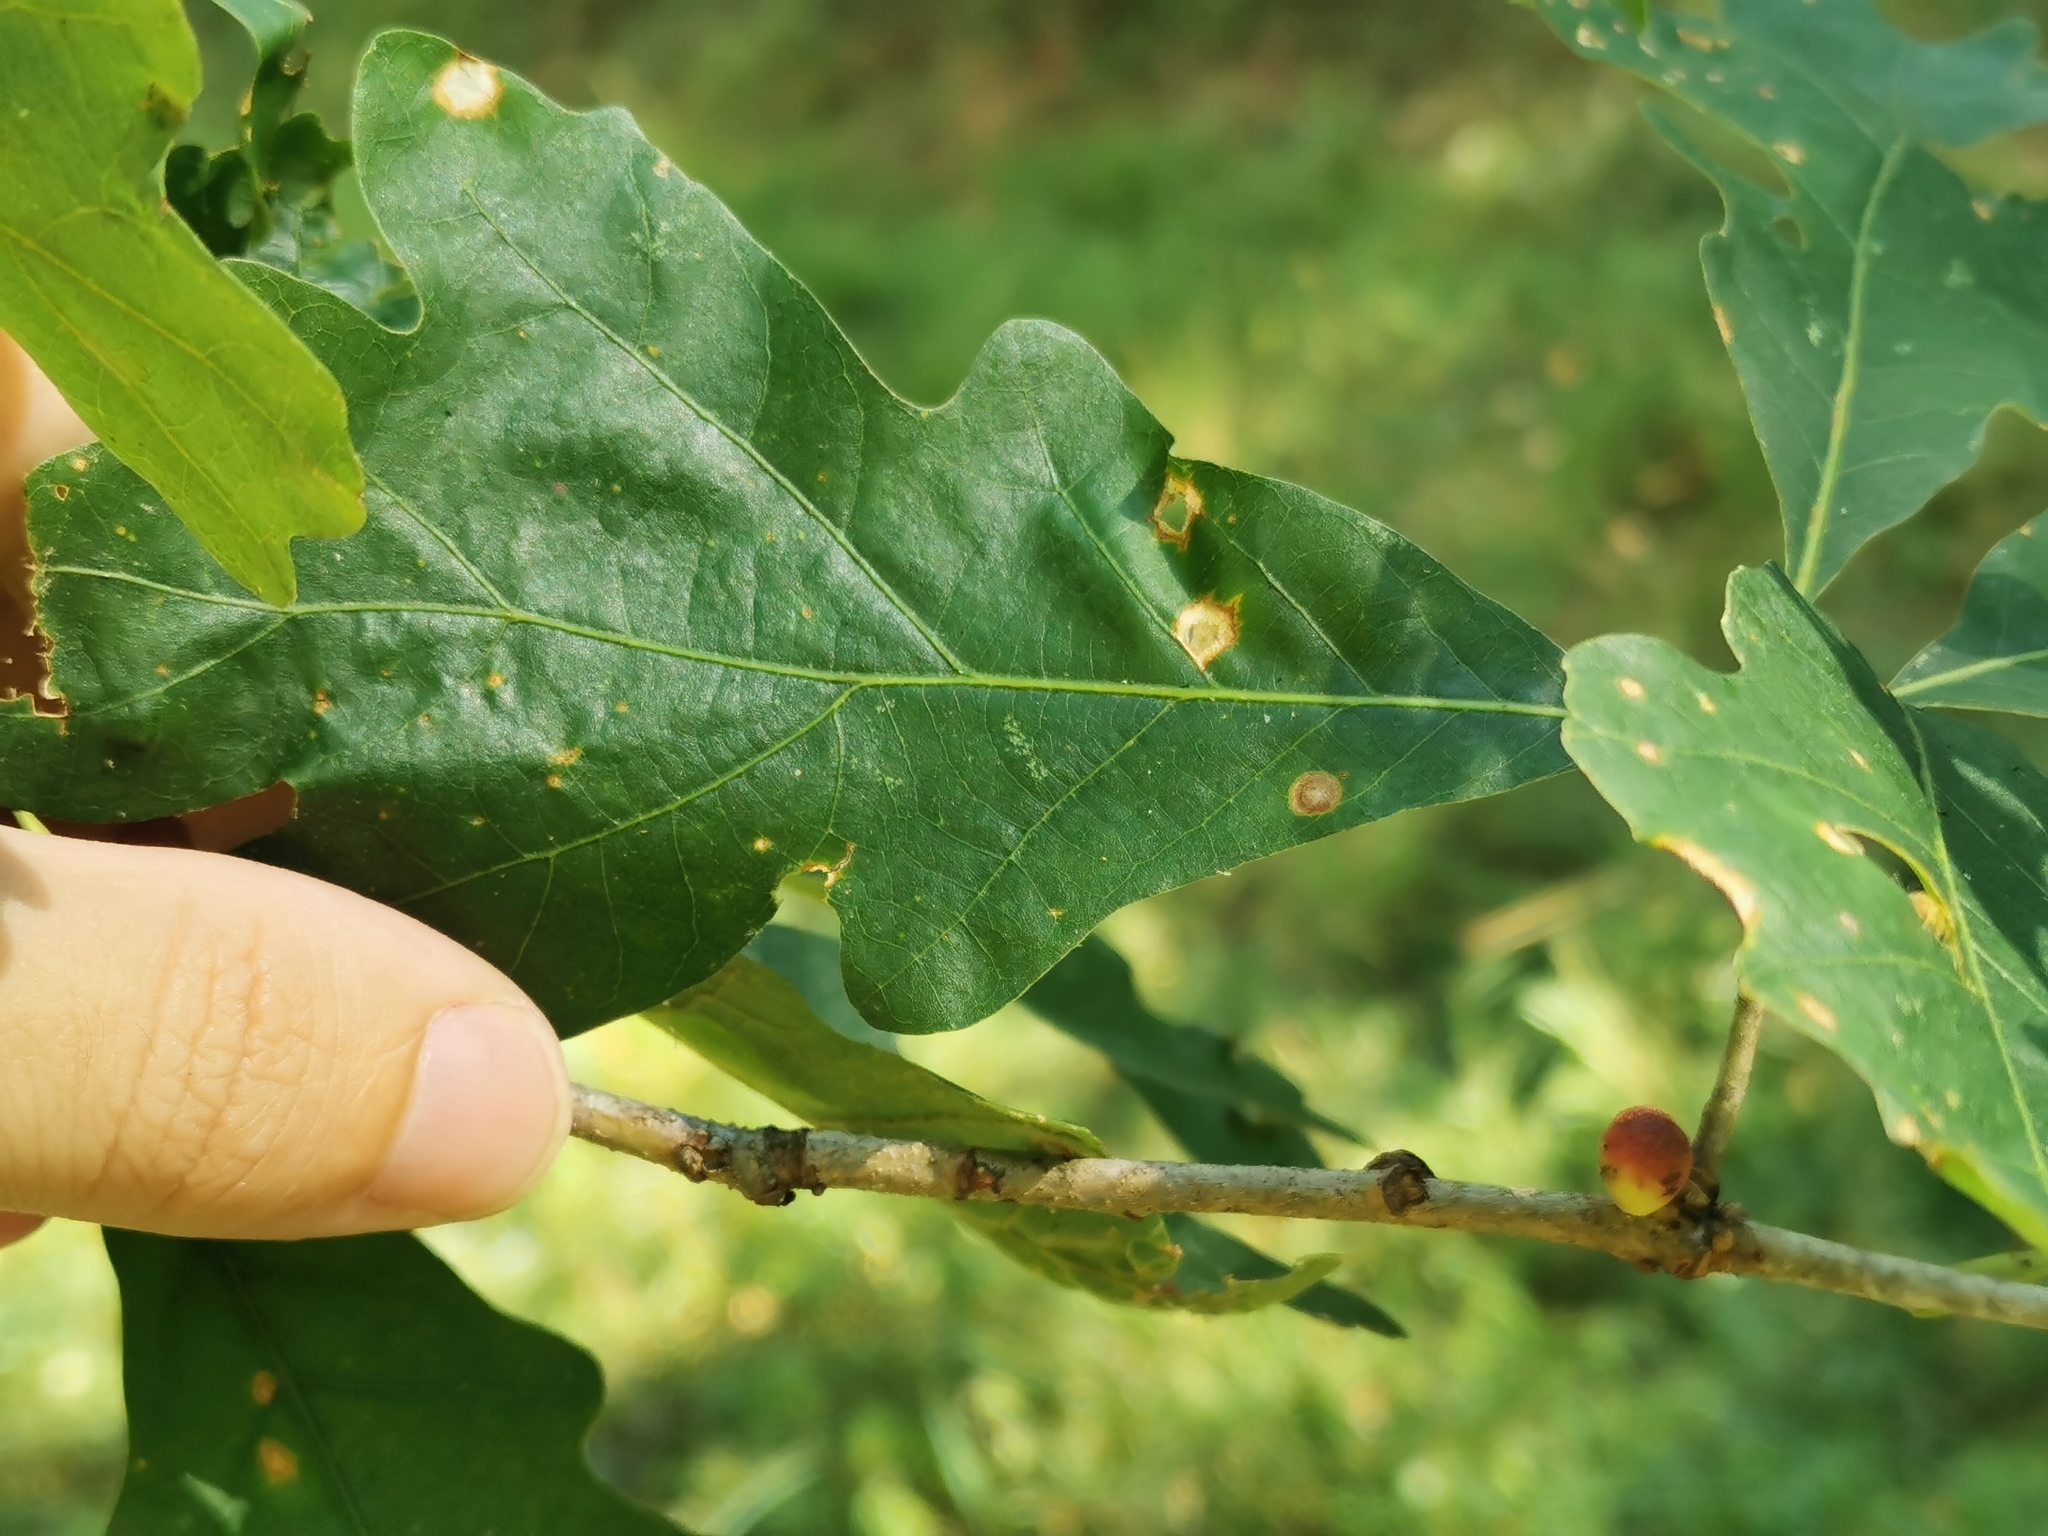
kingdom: Animalia
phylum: Arthropoda
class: Insecta
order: Hymenoptera
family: Cynipidae
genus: Disholcaspis
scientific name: Disholcaspis quercusglobulus
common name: Round bullet gall wasp
